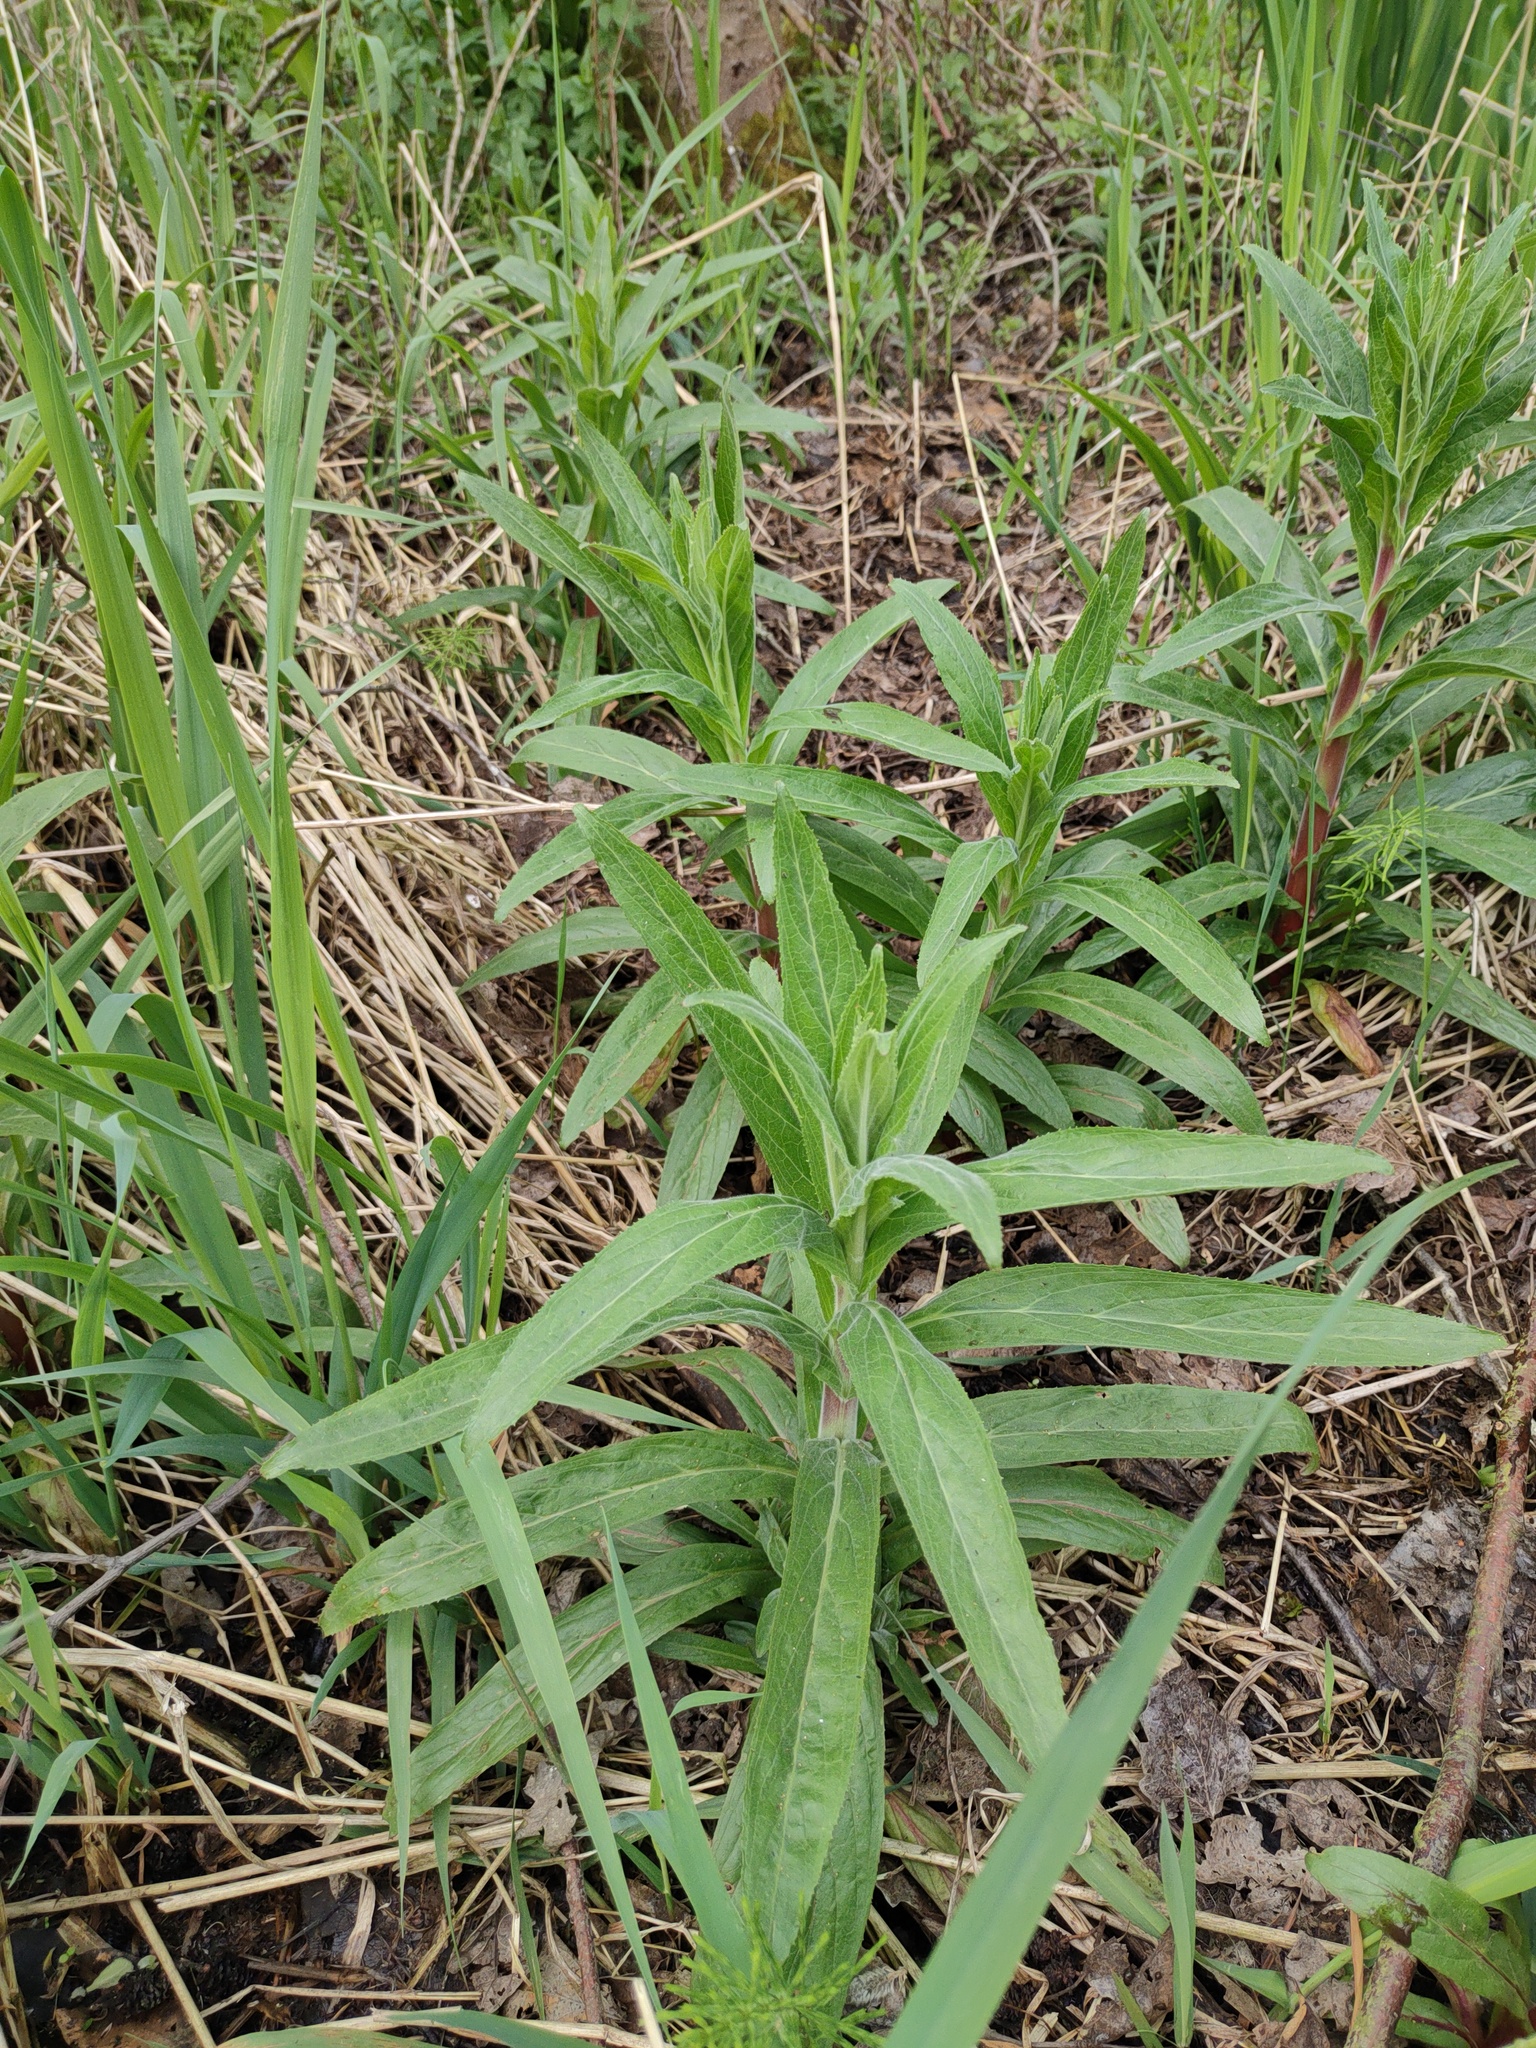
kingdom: Plantae
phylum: Tracheophyta
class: Magnoliopsida
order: Myrtales
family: Onagraceae
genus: Epilobium
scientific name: Epilobium hirsutum
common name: Great willowherb
